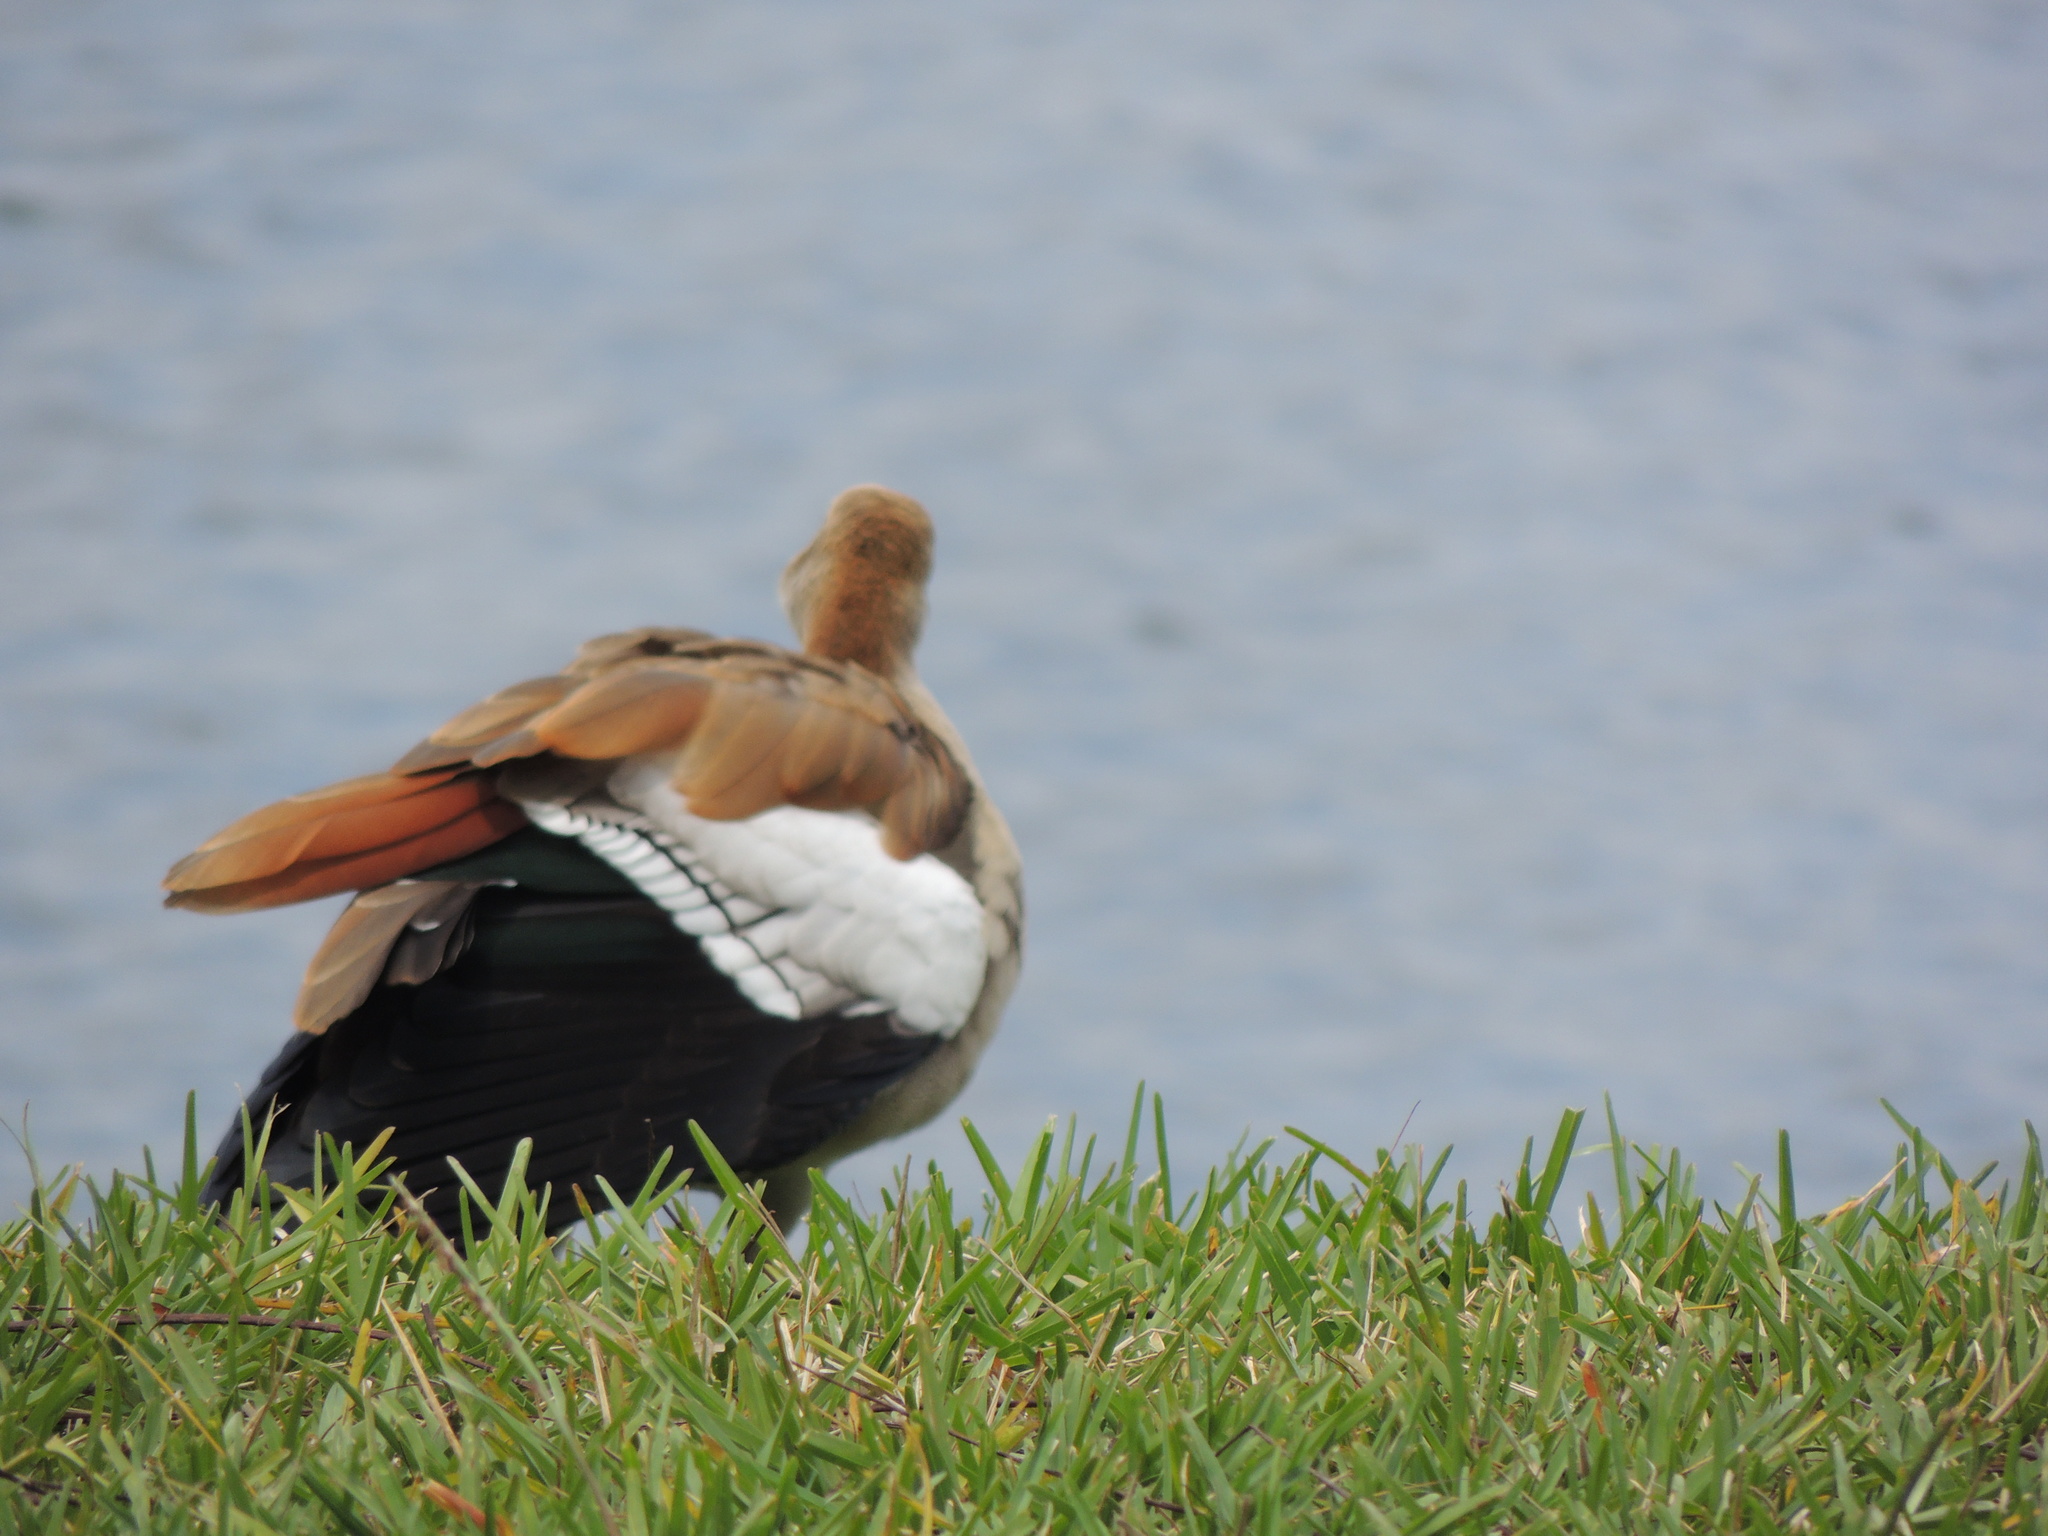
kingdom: Animalia
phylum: Chordata
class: Aves
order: Anseriformes
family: Anatidae
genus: Alopochen
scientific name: Alopochen aegyptiaca
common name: Egyptian goose
